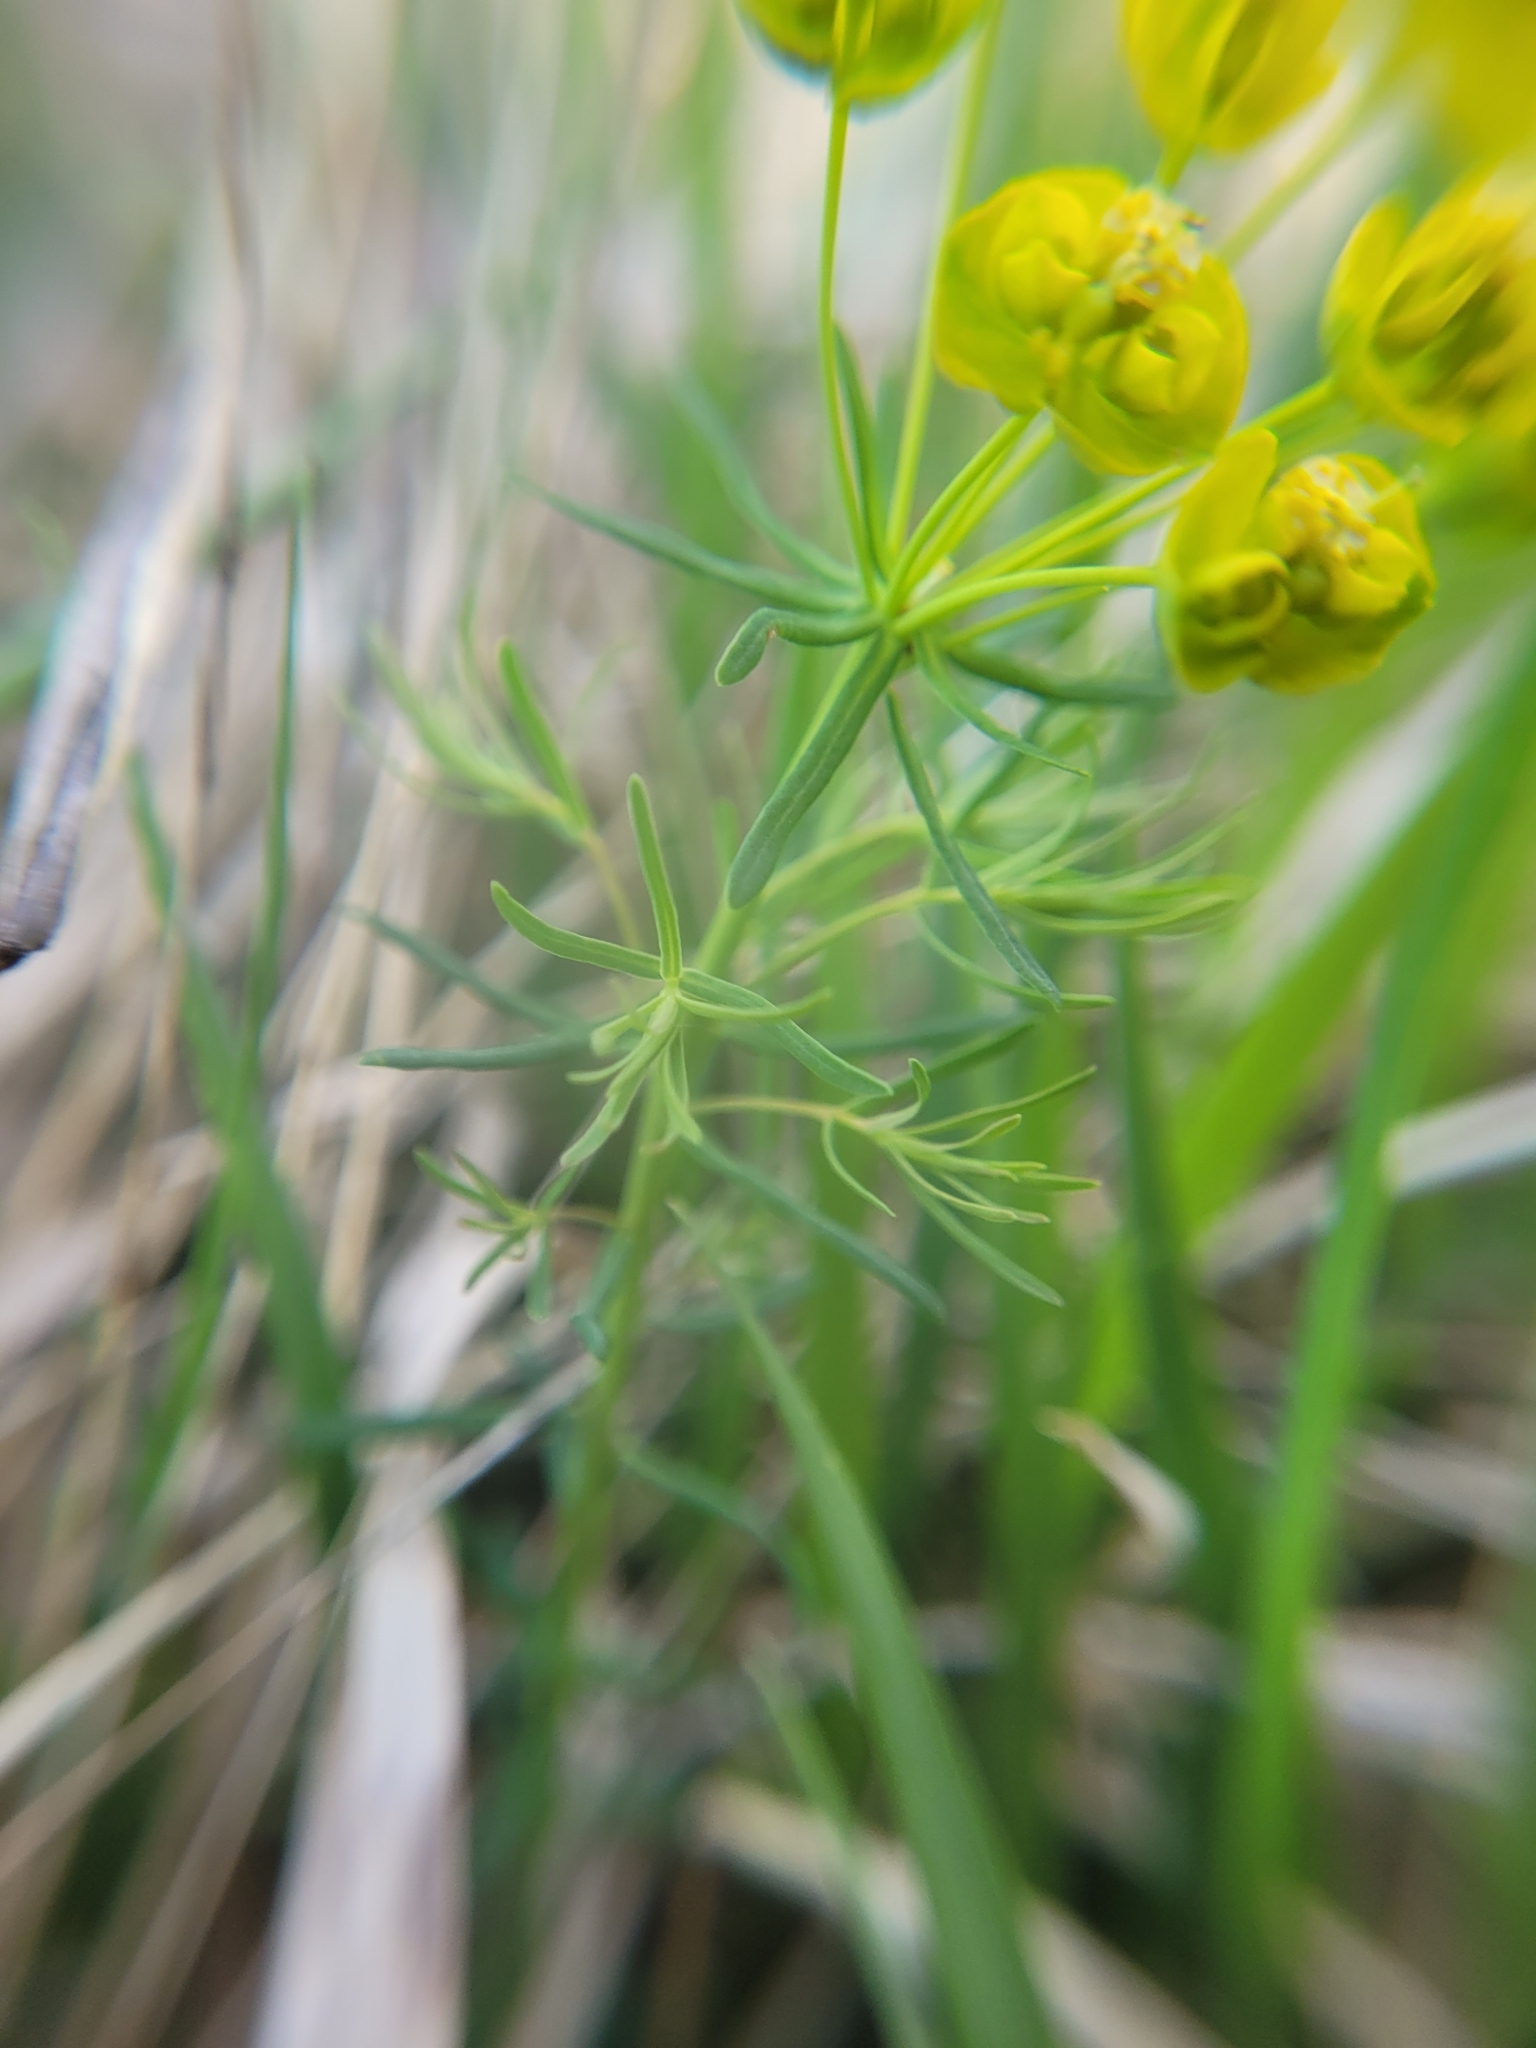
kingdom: Plantae
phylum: Tracheophyta
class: Magnoliopsida
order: Malpighiales
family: Euphorbiaceae
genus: Euphorbia
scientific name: Euphorbia cyparissias
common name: Cypress spurge
